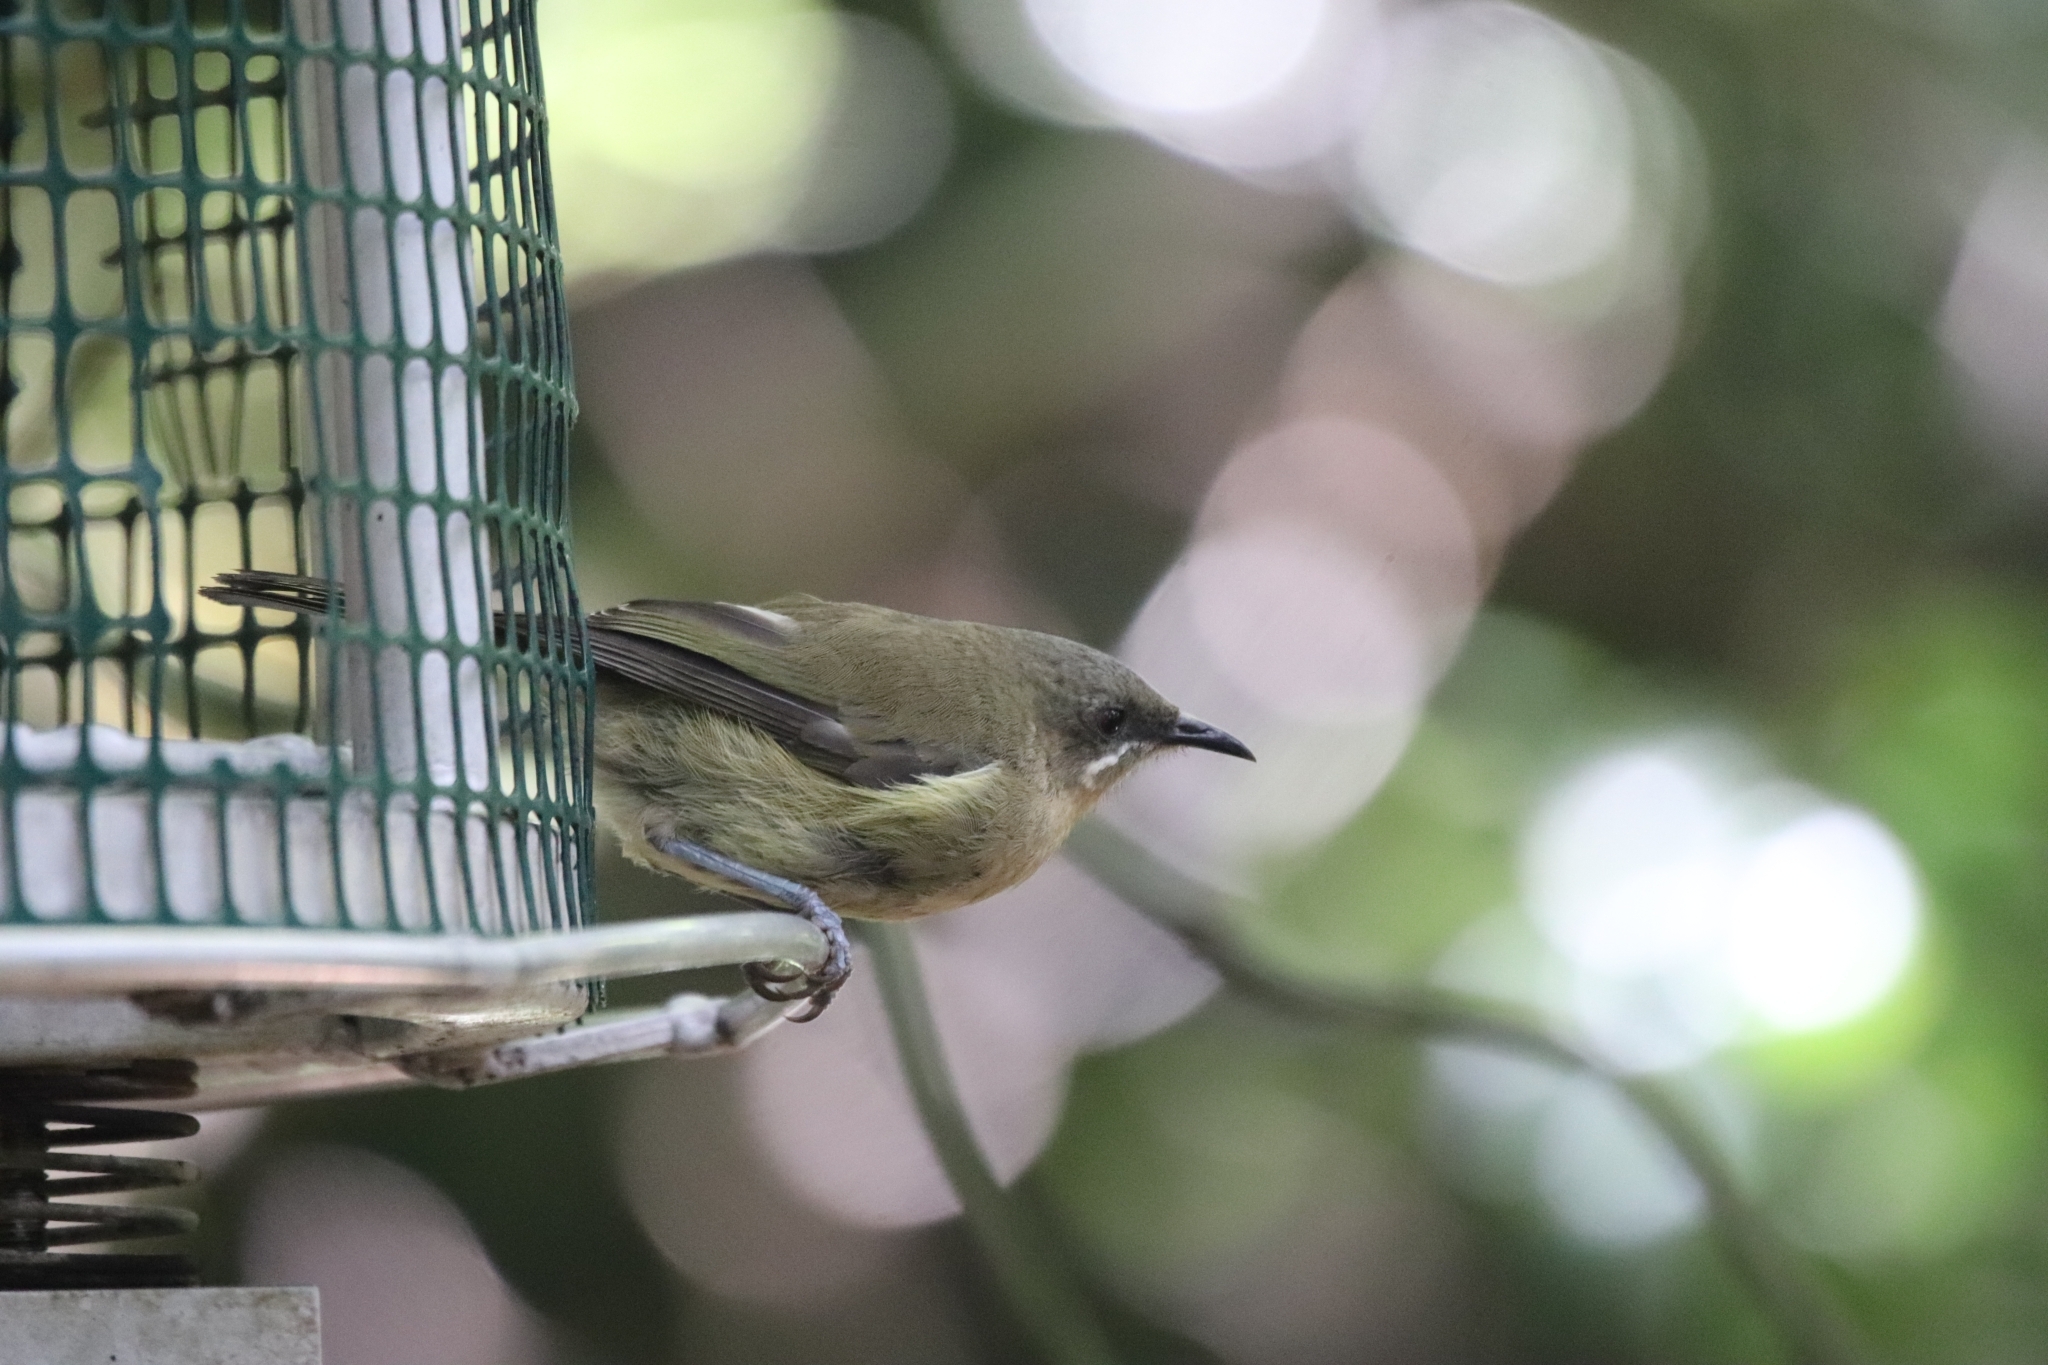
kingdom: Animalia
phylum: Chordata
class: Aves
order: Passeriformes
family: Meliphagidae
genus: Anthornis
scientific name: Anthornis melanura
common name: New zealand bellbird
